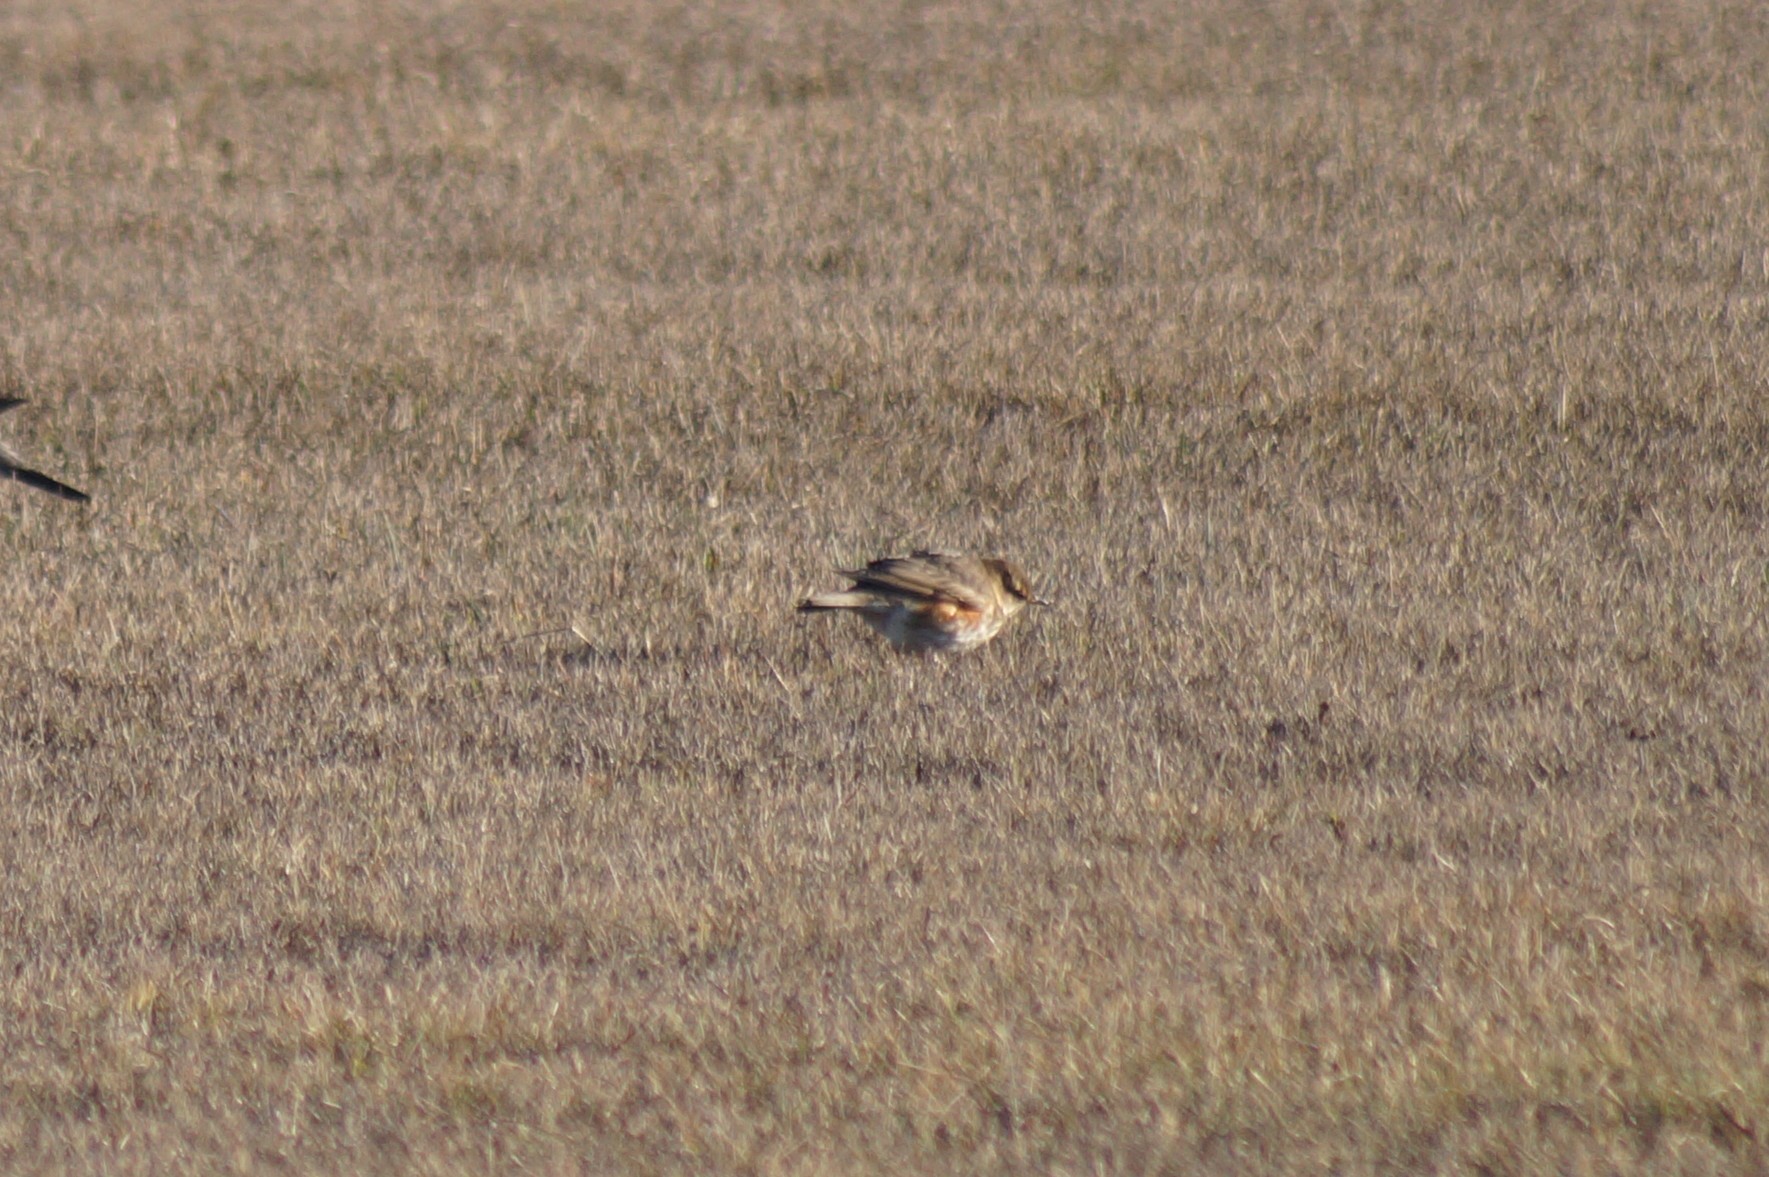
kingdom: Animalia
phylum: Chordata
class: Aves
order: Passeriformes
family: Turdidae
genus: Turdus
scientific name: Turdus iliacus
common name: Redwing
